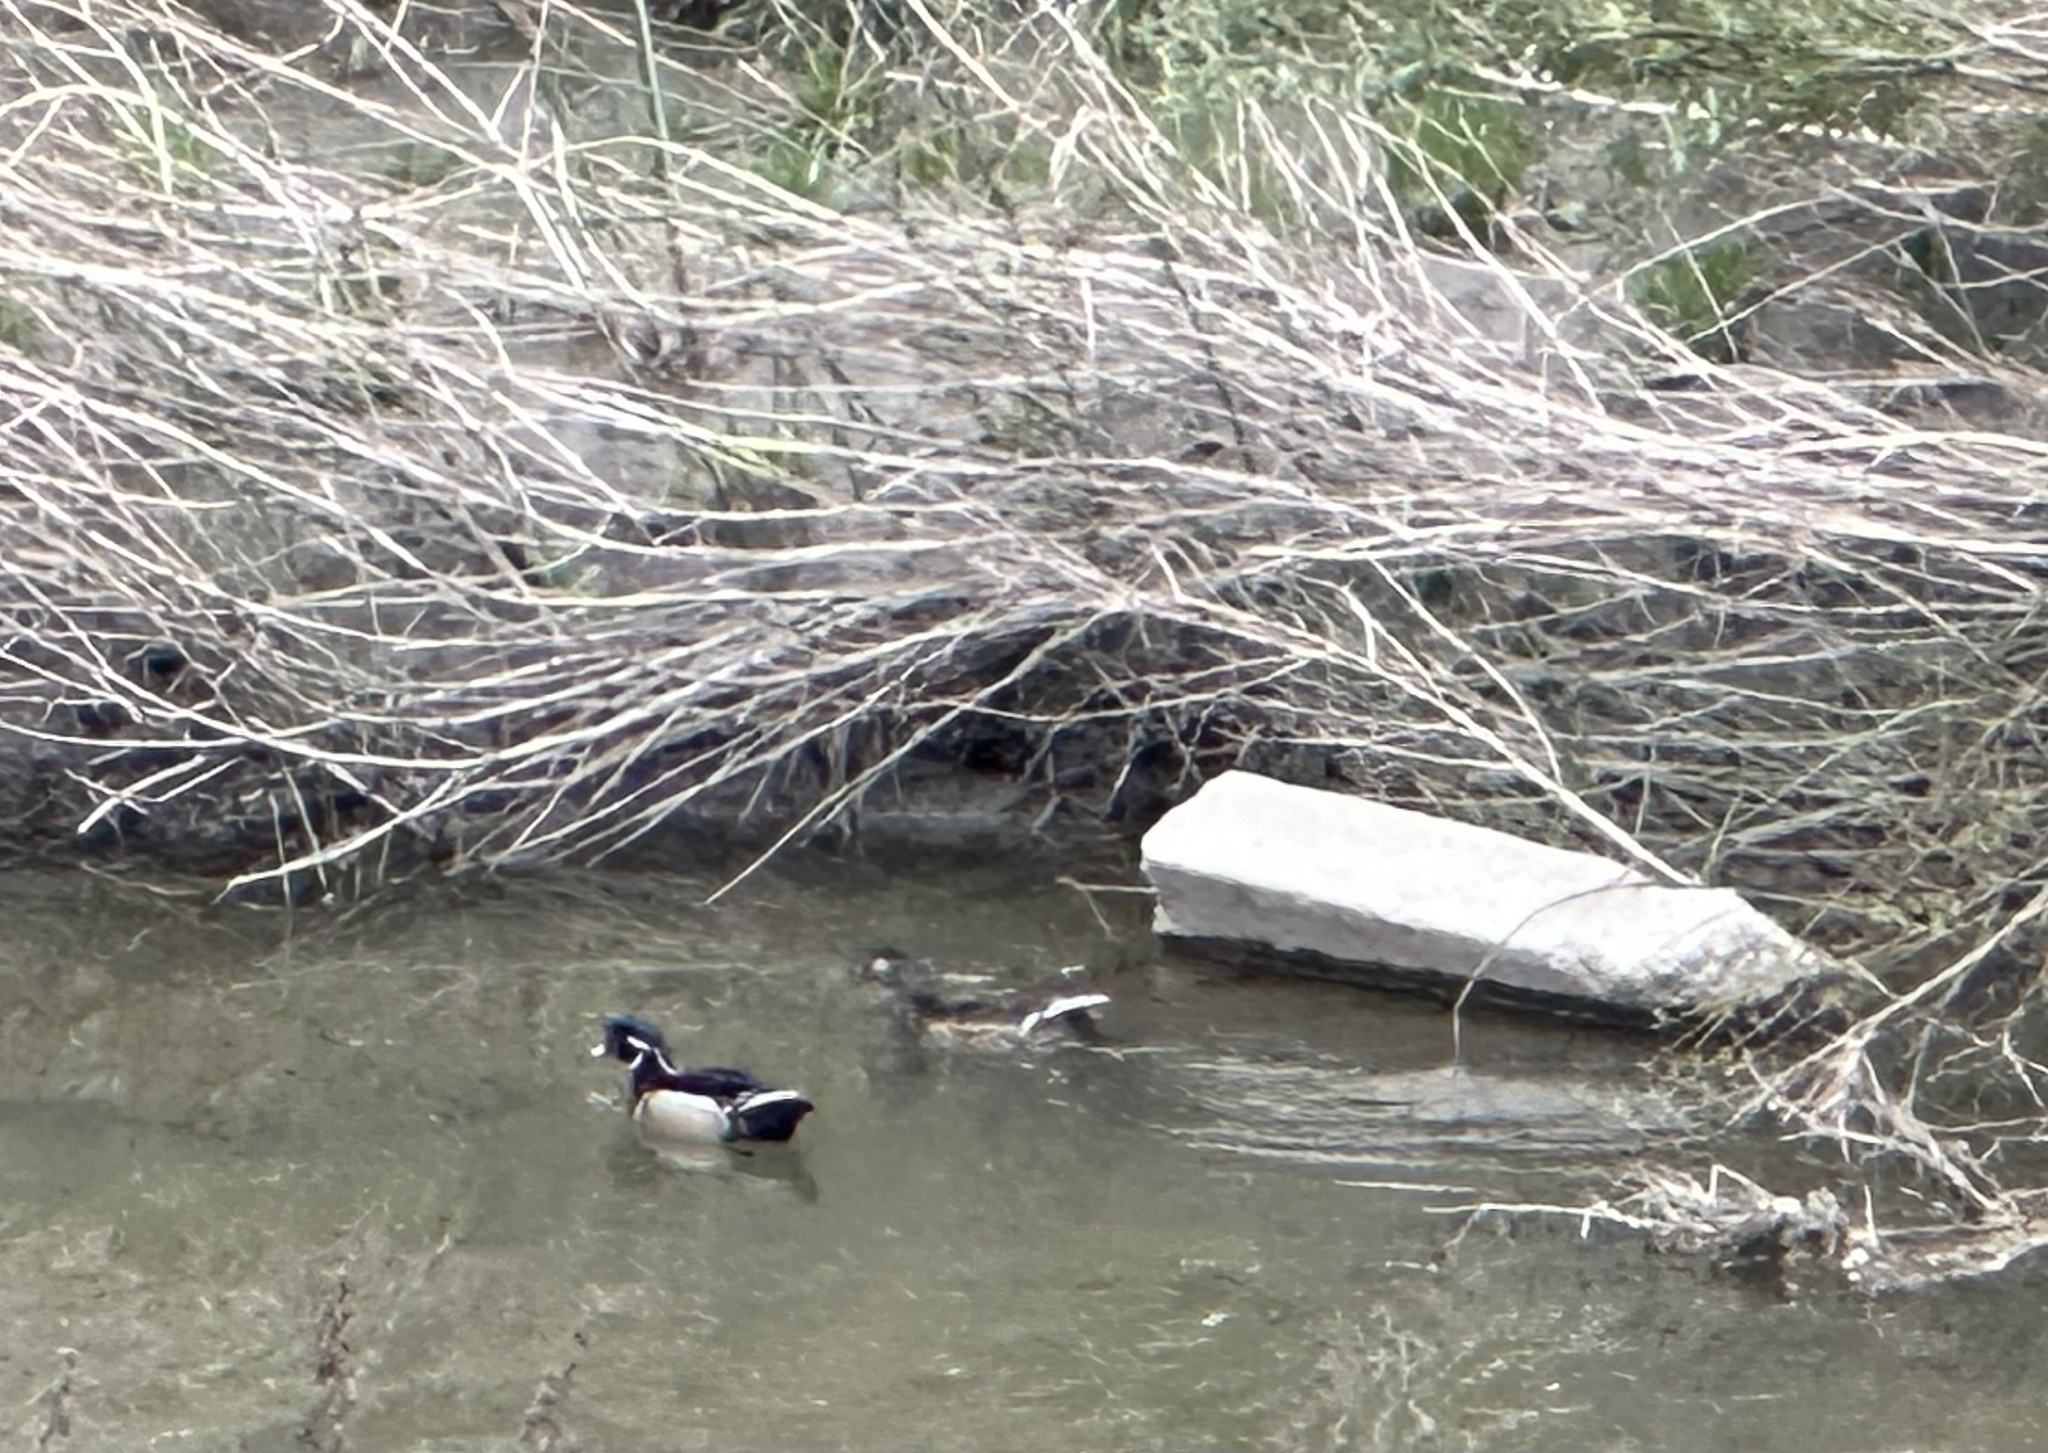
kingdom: Animalia
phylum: Chordata
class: Aves
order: Anseriformes
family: Anatidae
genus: Aix
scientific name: Aix sponsa
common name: Wood duck
